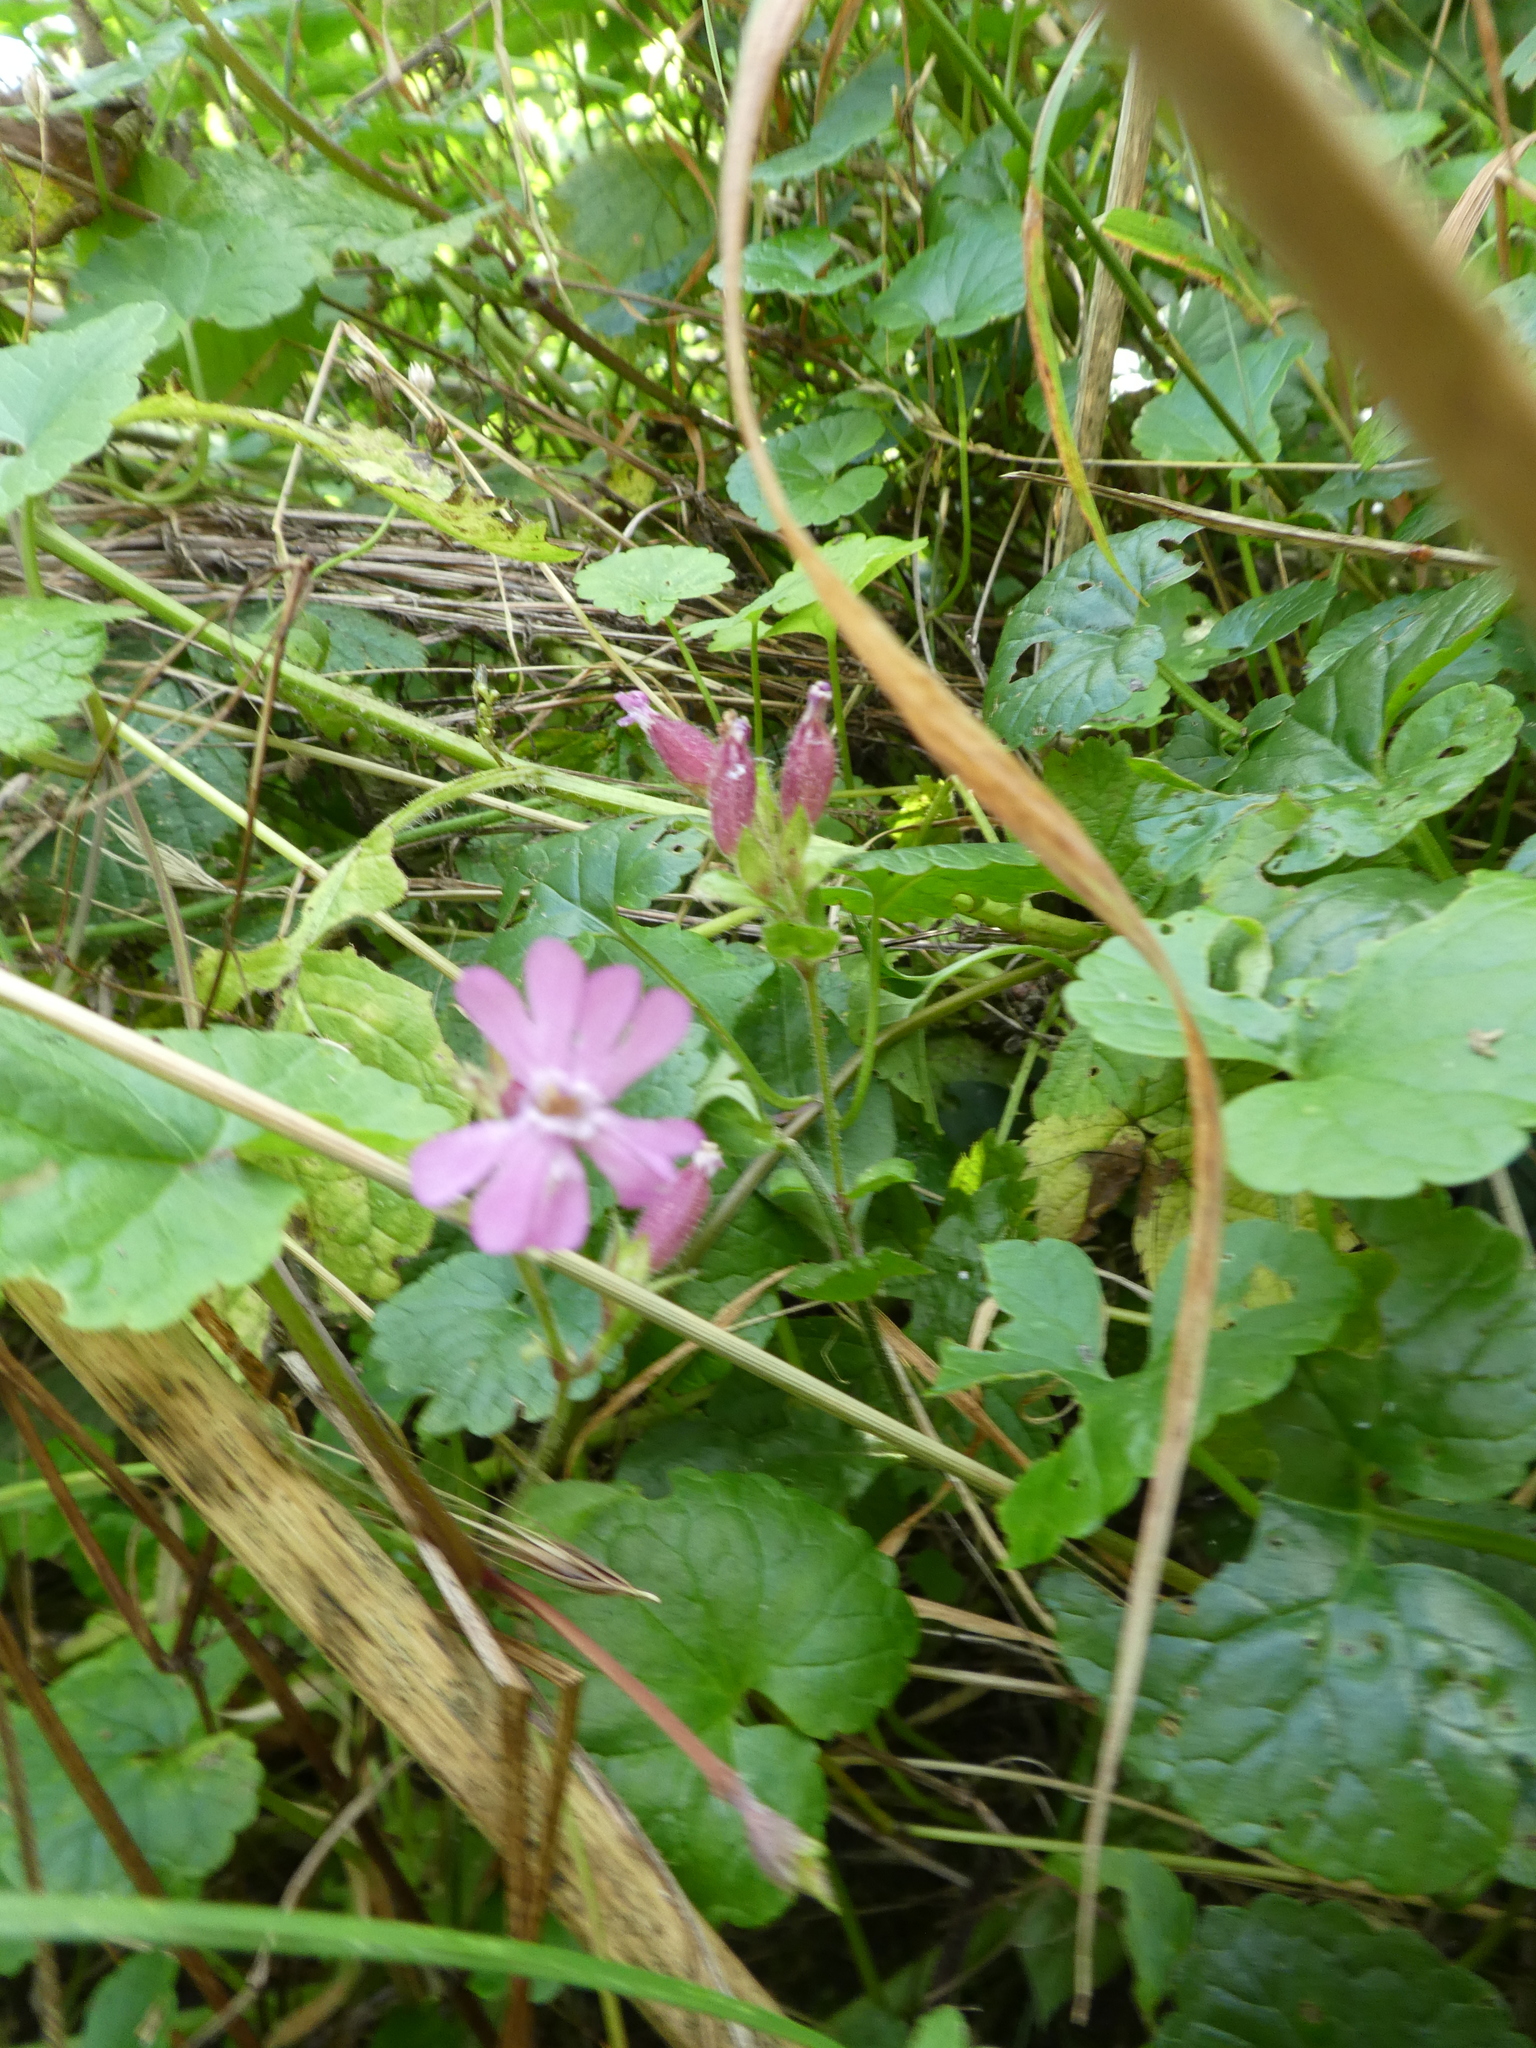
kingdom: Plantae
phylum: Tracheophyta
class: Magnoliopsida
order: Caryophyllales
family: Caryophyllaceae
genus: Silene
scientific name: Silene dioica
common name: Red campion
